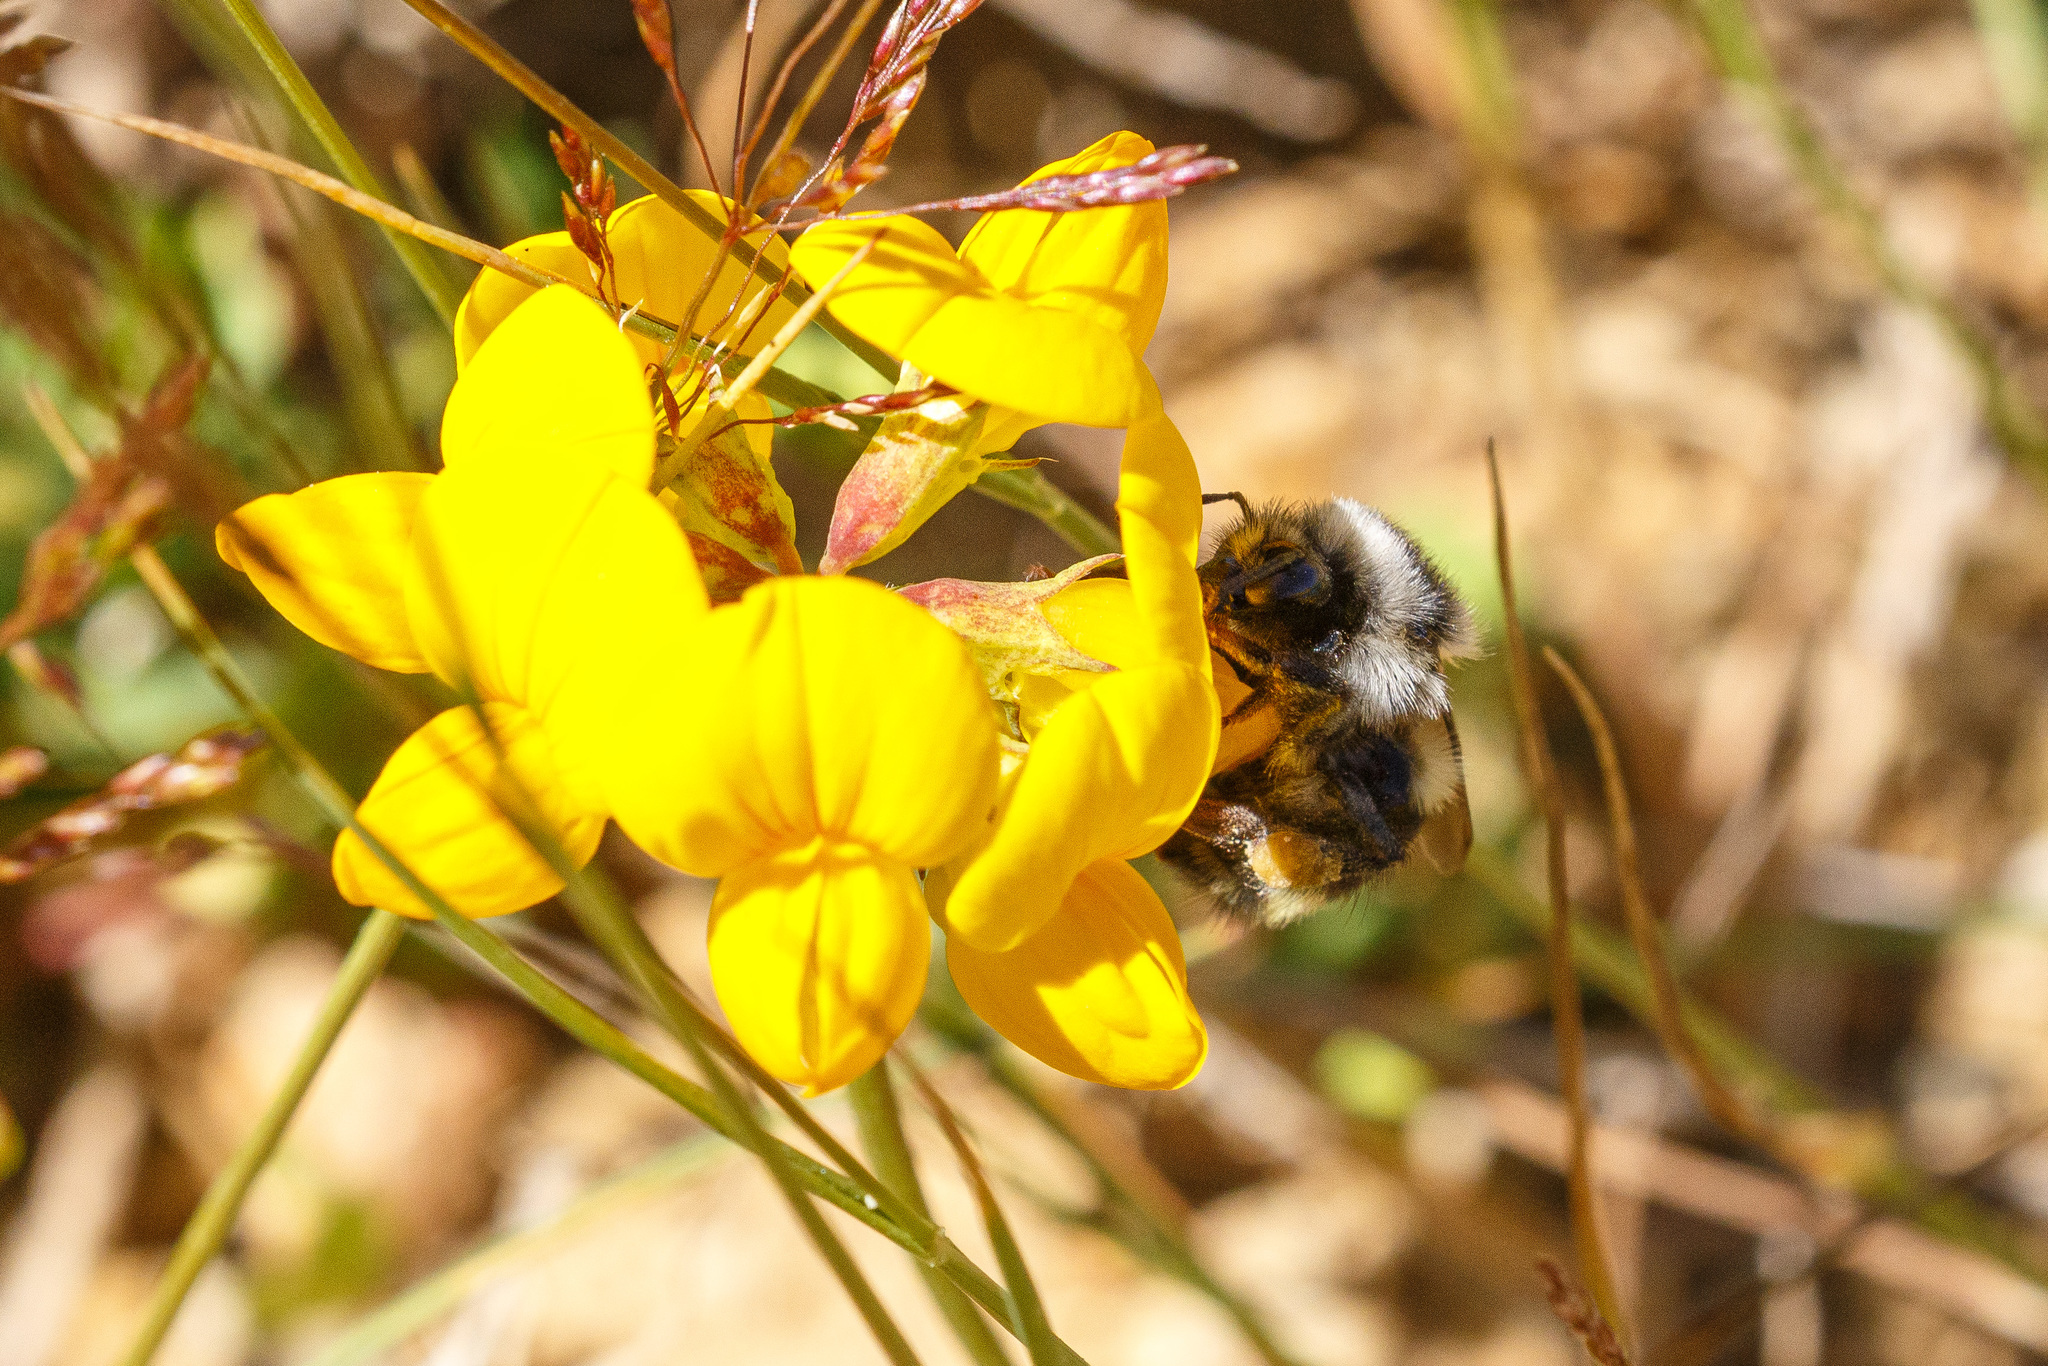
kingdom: Animalia
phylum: Arthropoda
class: Insecta
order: Hymenoptera
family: Apidae
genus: Bombus
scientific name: Bombus vancouverensis
